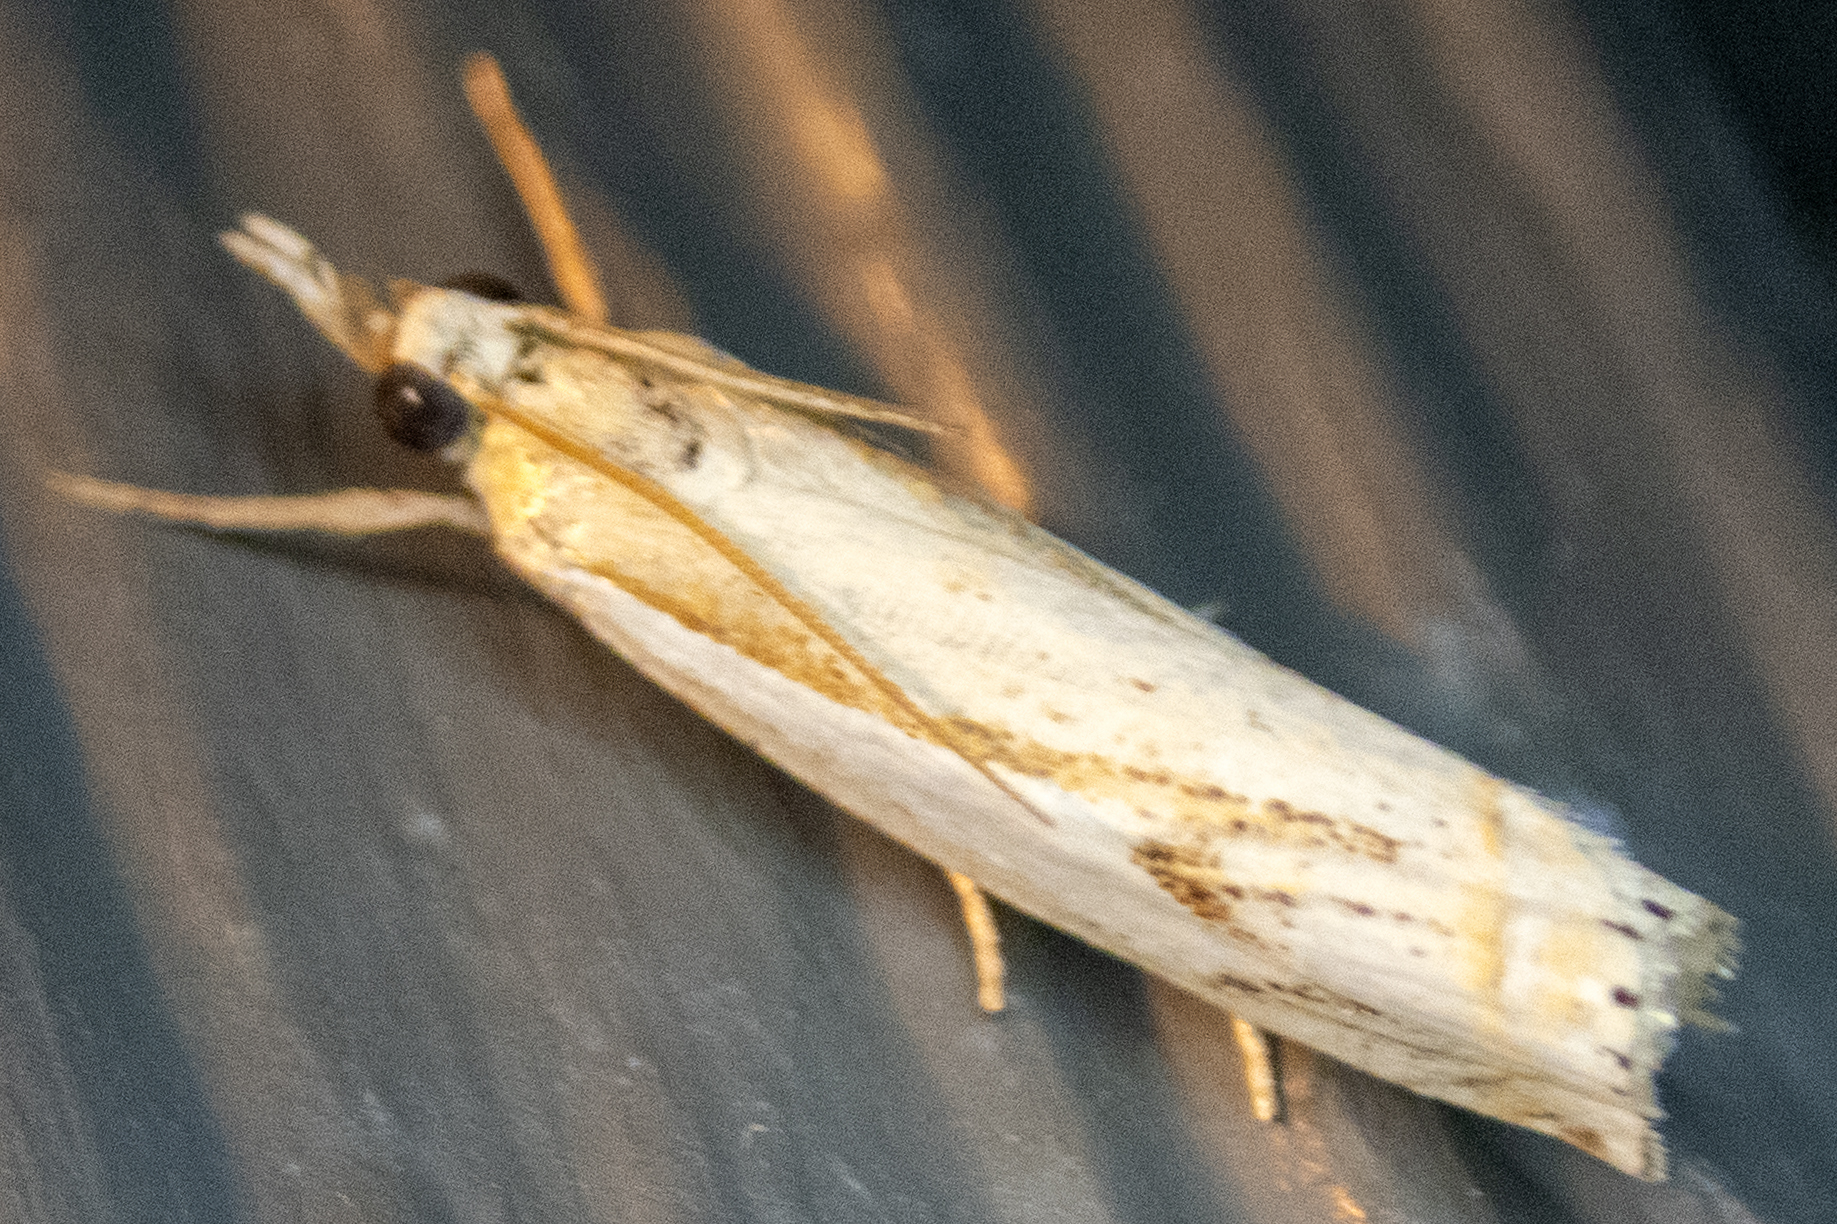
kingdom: Animalia
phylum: Arthropoda
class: Insecta
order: Lepidoptera
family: Crambidae
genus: Crambus
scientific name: Crambus agitatellus
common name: Double-banded grass-veneer
